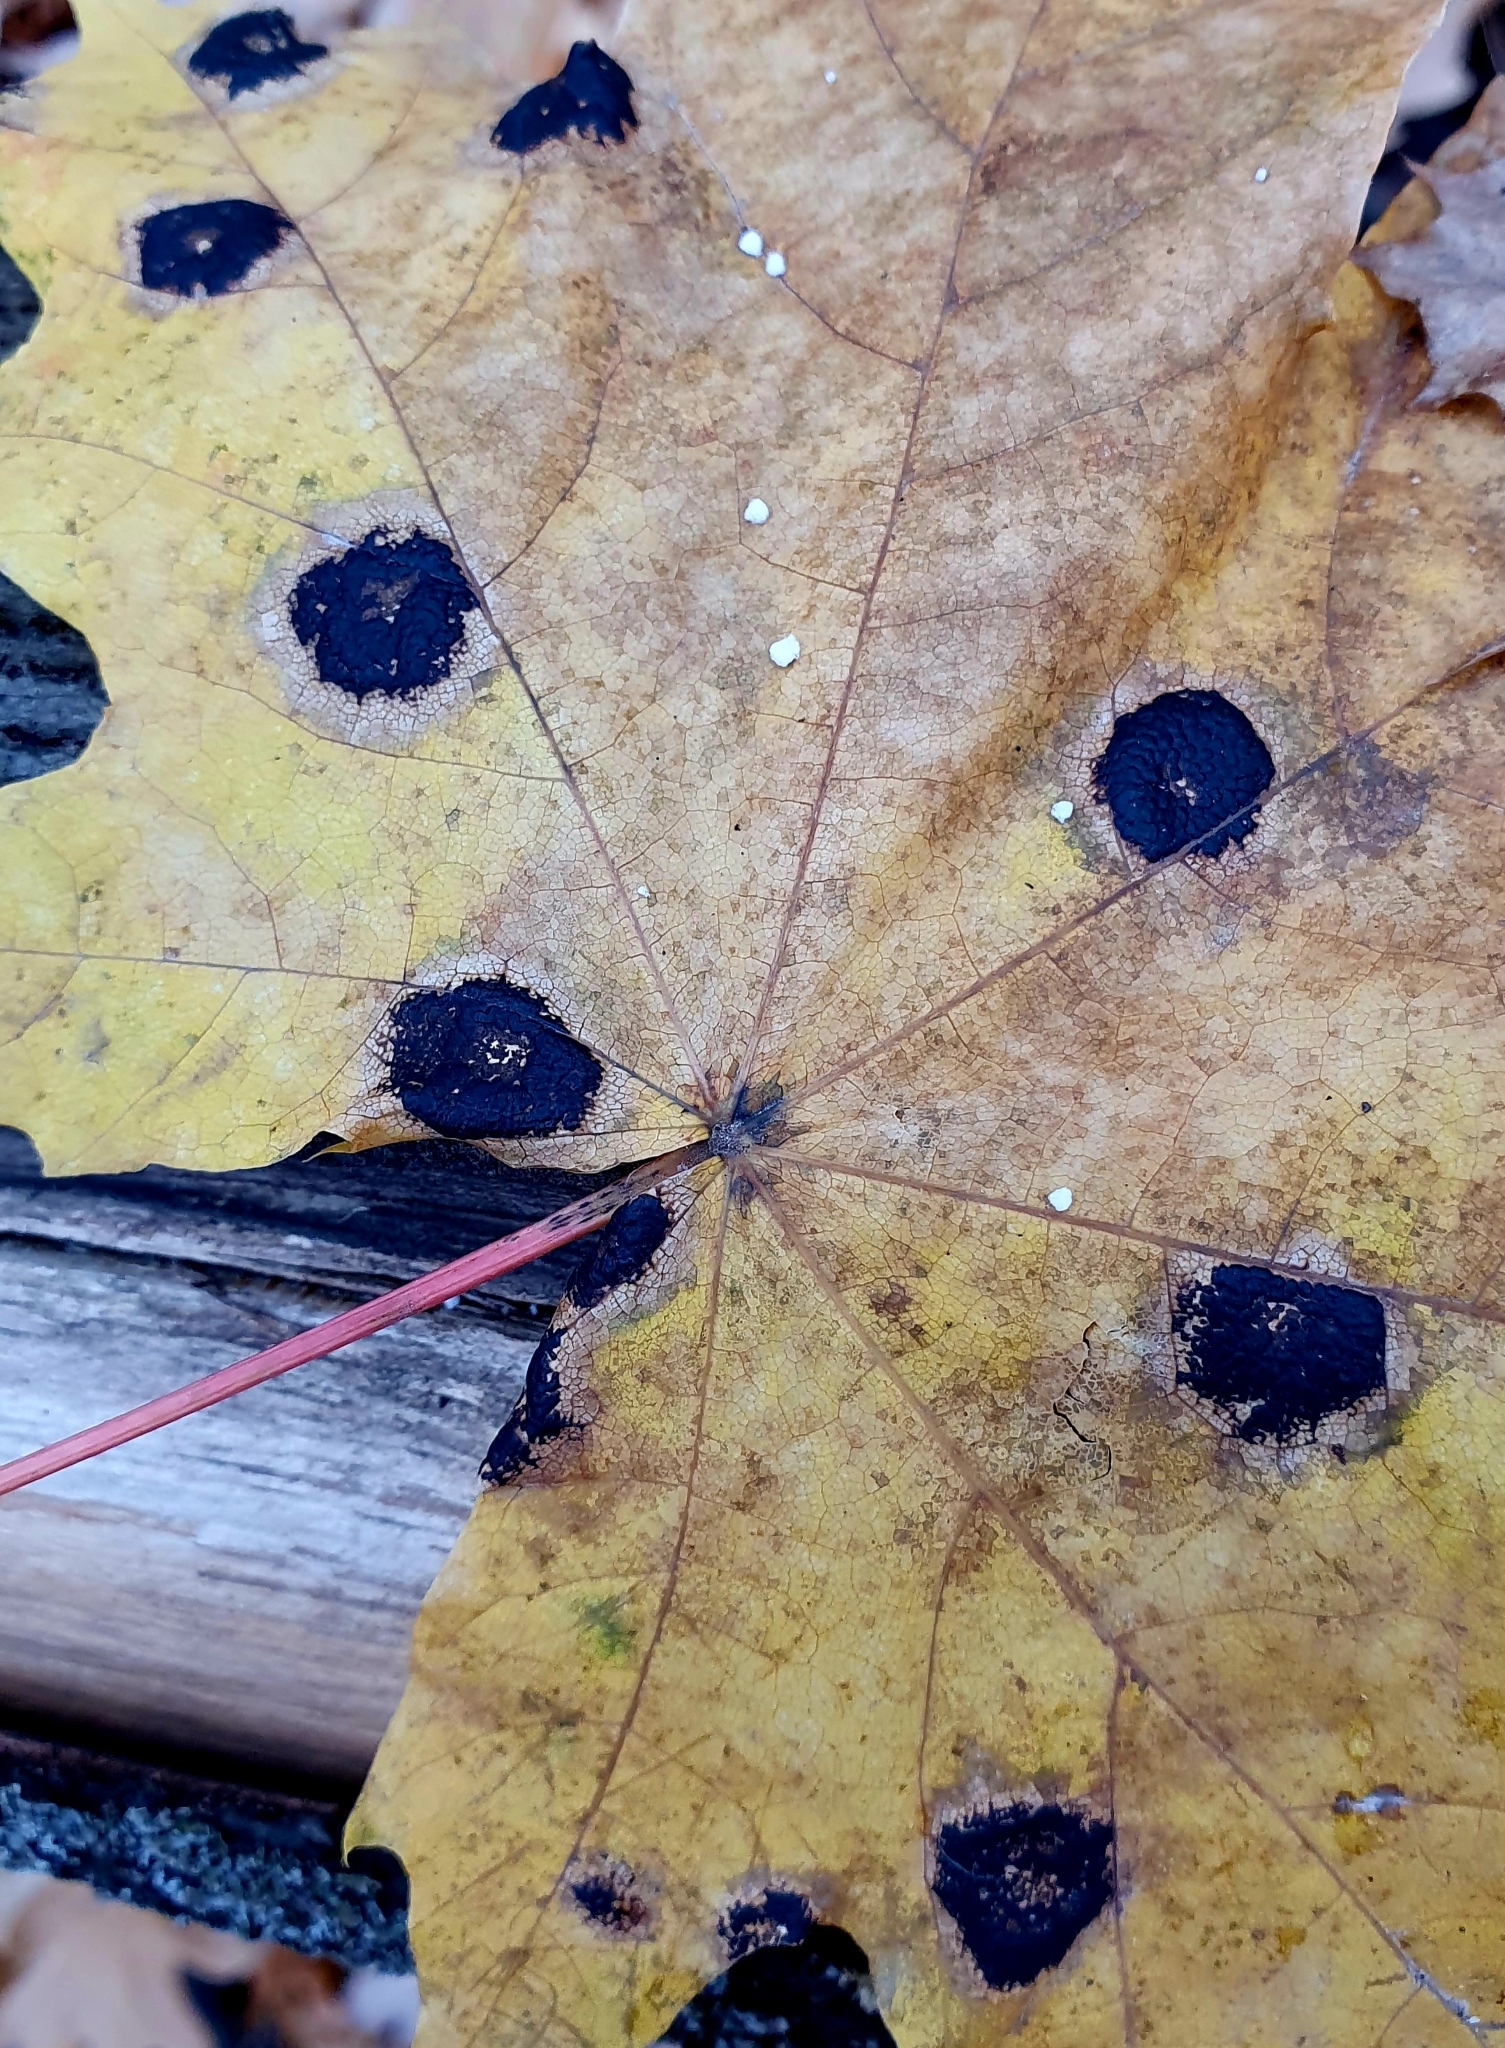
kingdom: Fungi
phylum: Ascomycota
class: Leotiomycetes
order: Rhytismatales
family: Rhytismataceae
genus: Rhytisma
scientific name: Rhytisma acerinum
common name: European tar spot
